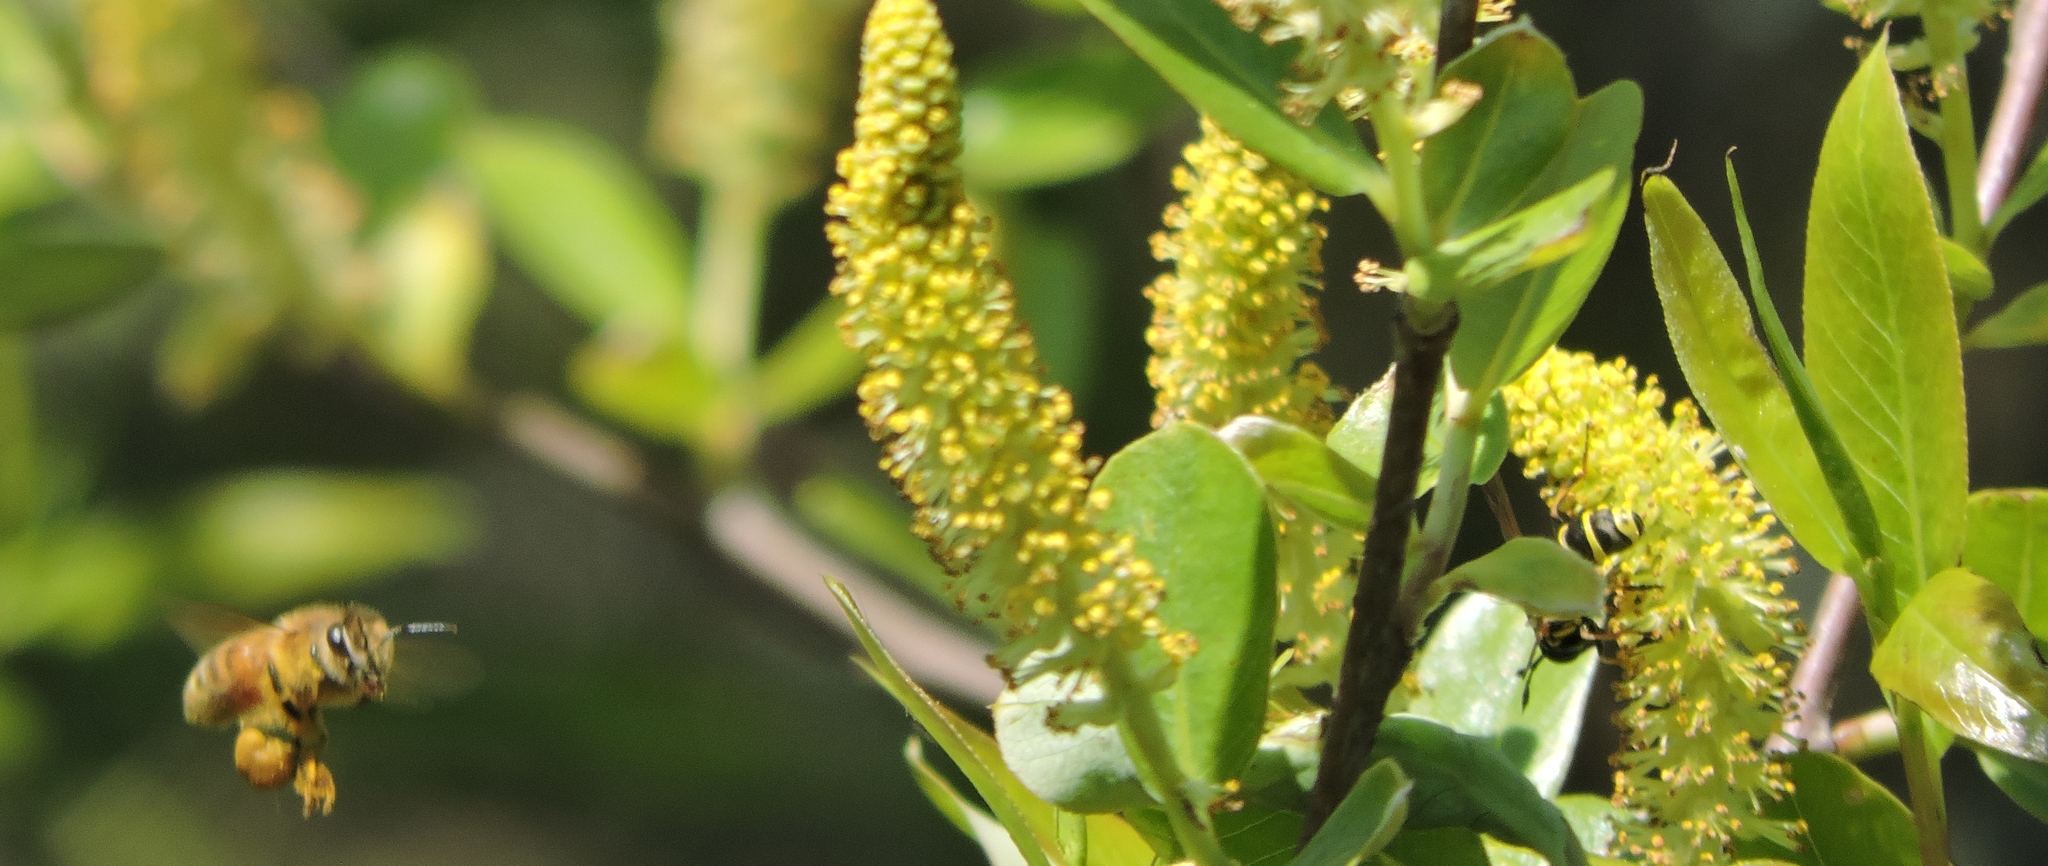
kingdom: Animalia
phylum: Arthropoda
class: Insecta
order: Hymenoptera
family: Apidae
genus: Apis
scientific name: Apis mellifera
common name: Honey bee
